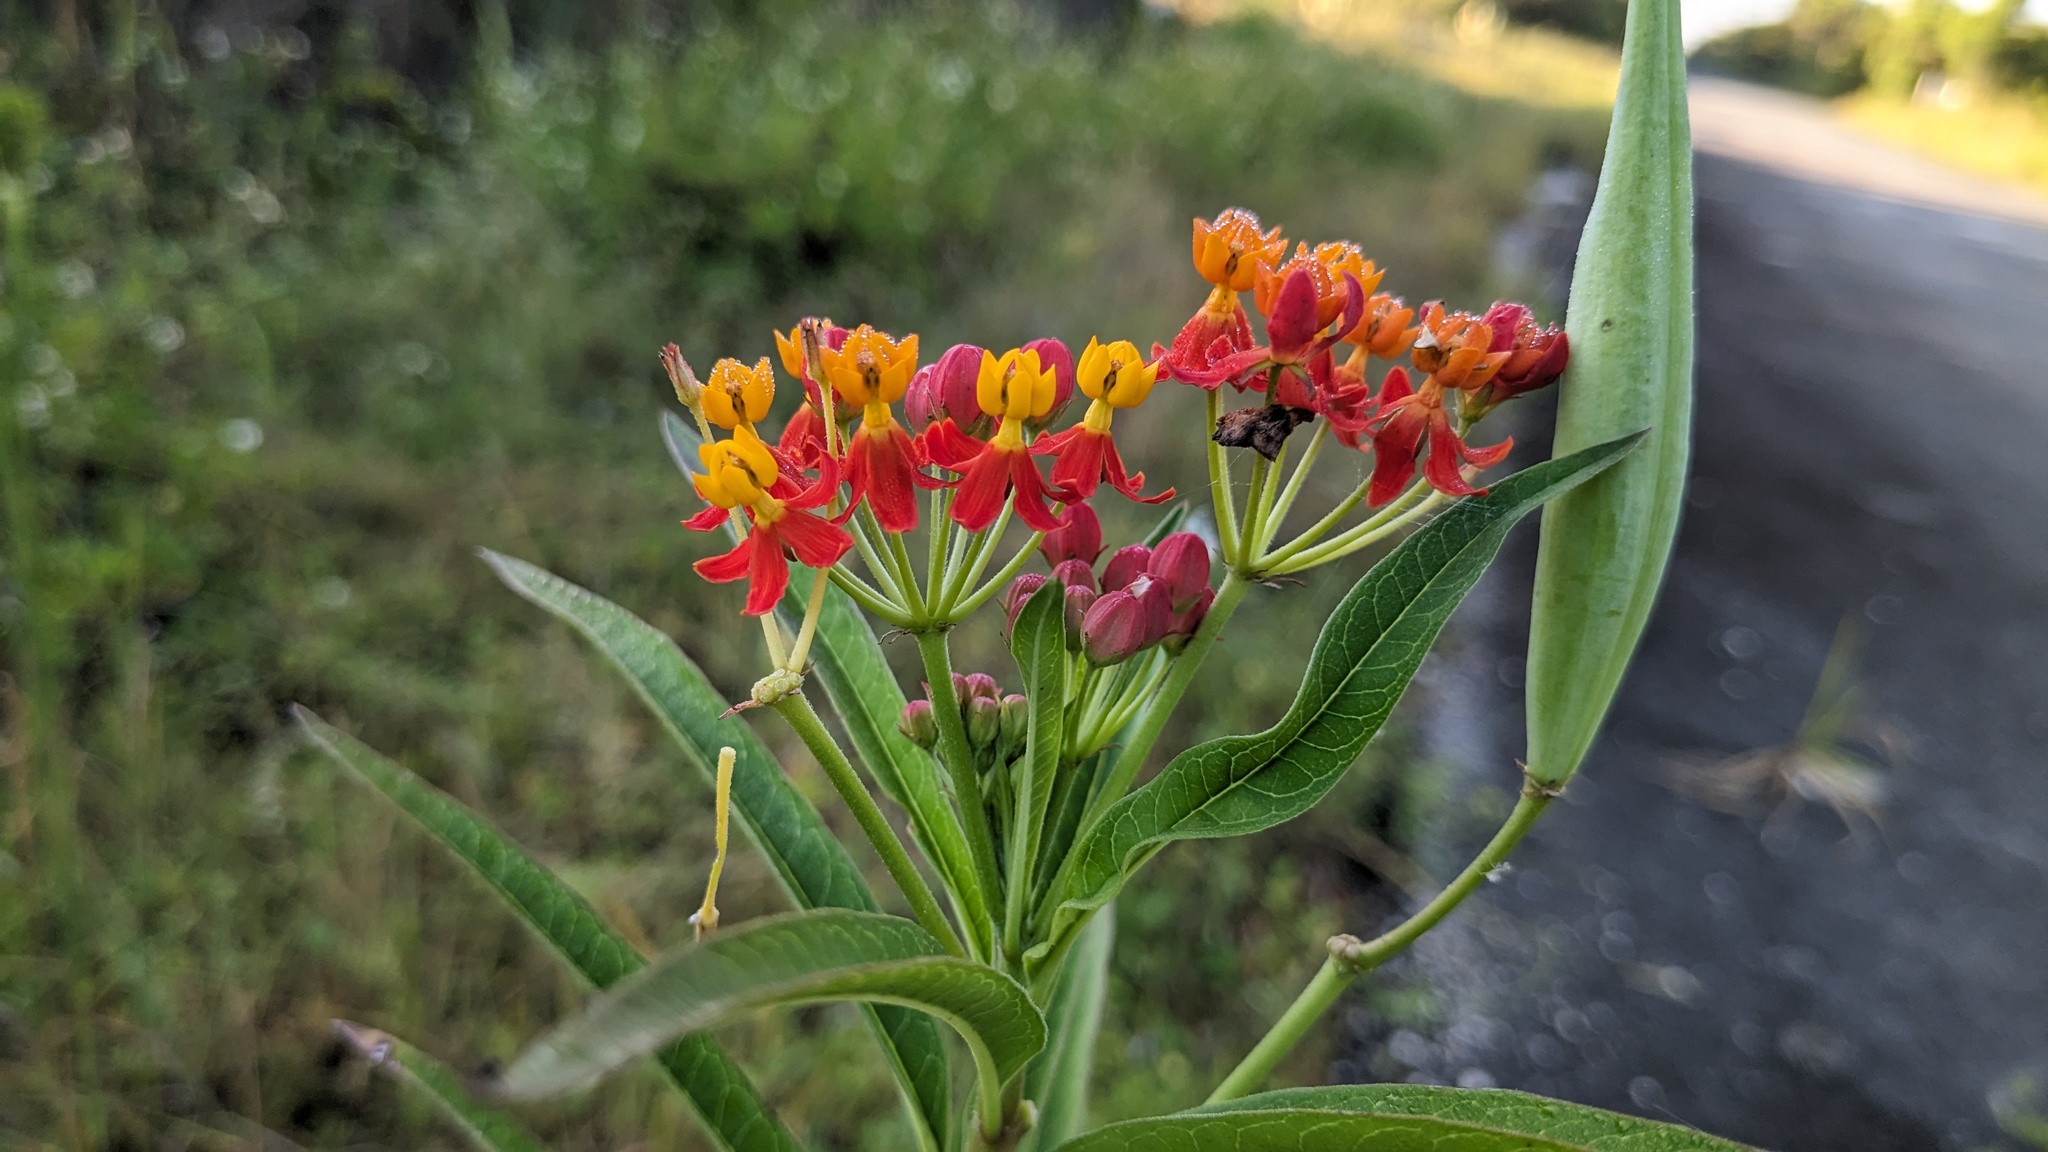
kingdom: Plantae
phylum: Tracheophyta
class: Magnoliopsida
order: Gentianales
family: Apocynaceae
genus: Asclepias
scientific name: Asclepias curassavica
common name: Bloodflower
